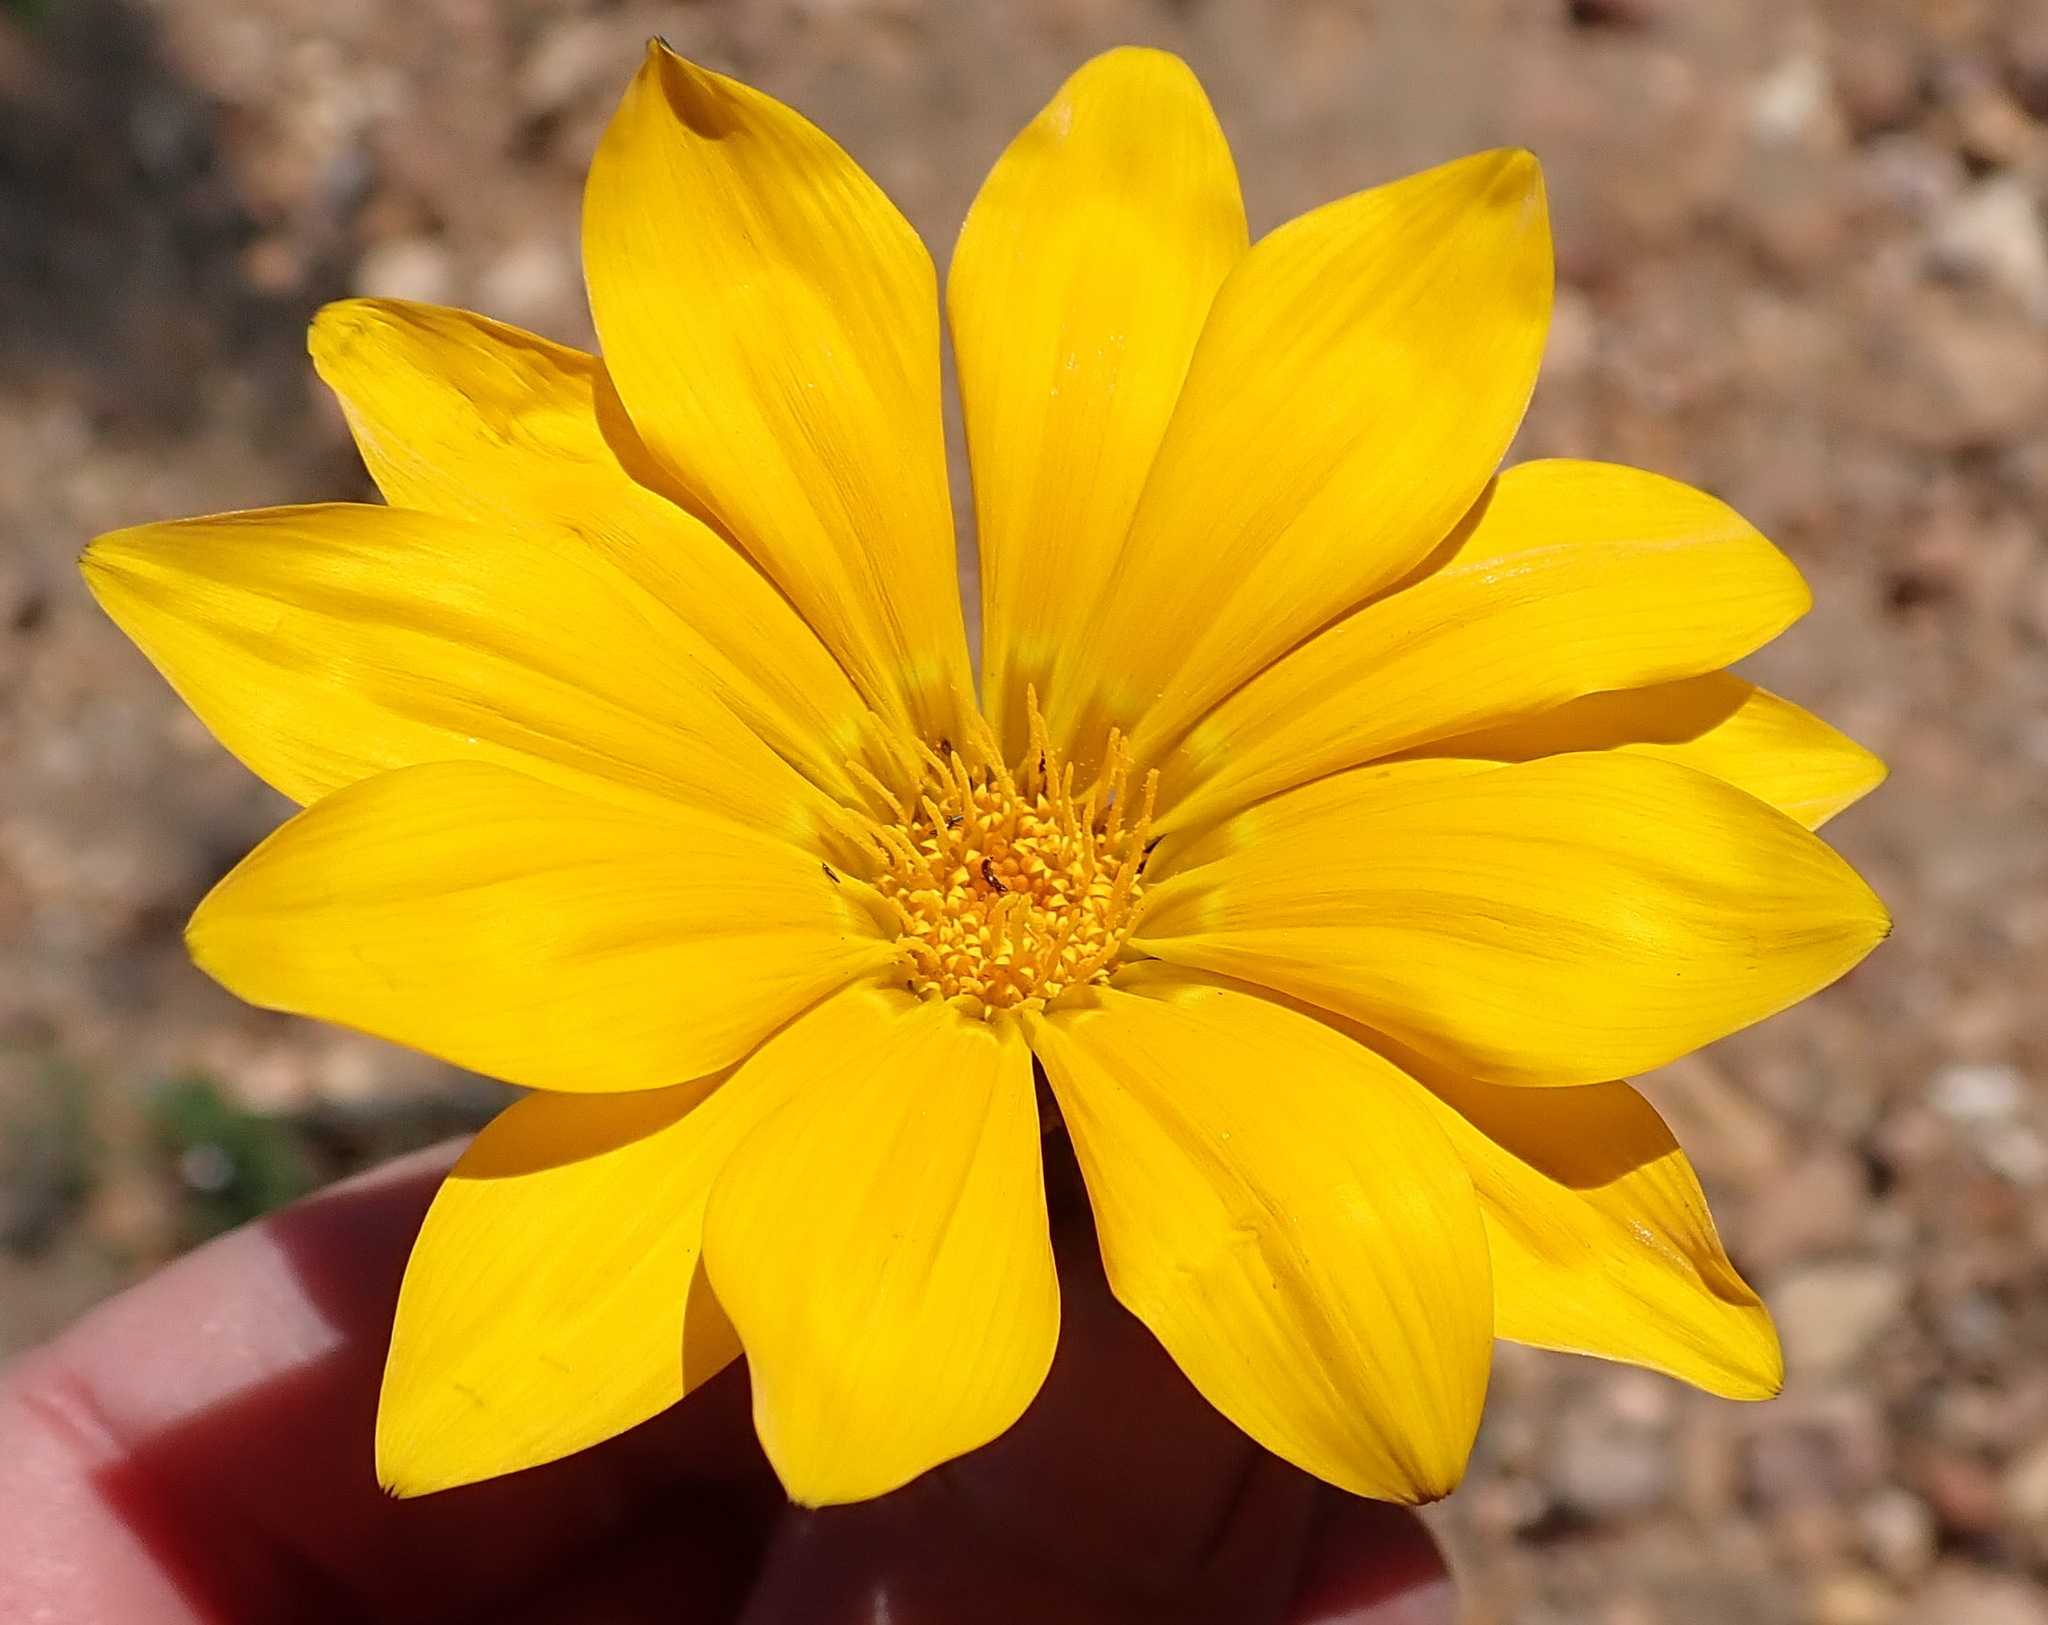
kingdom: Plantae
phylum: Tracheophyta
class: Magnoliopsida
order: Asterales
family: Asteraceae
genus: Gazania
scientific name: Gazania krebsiana
